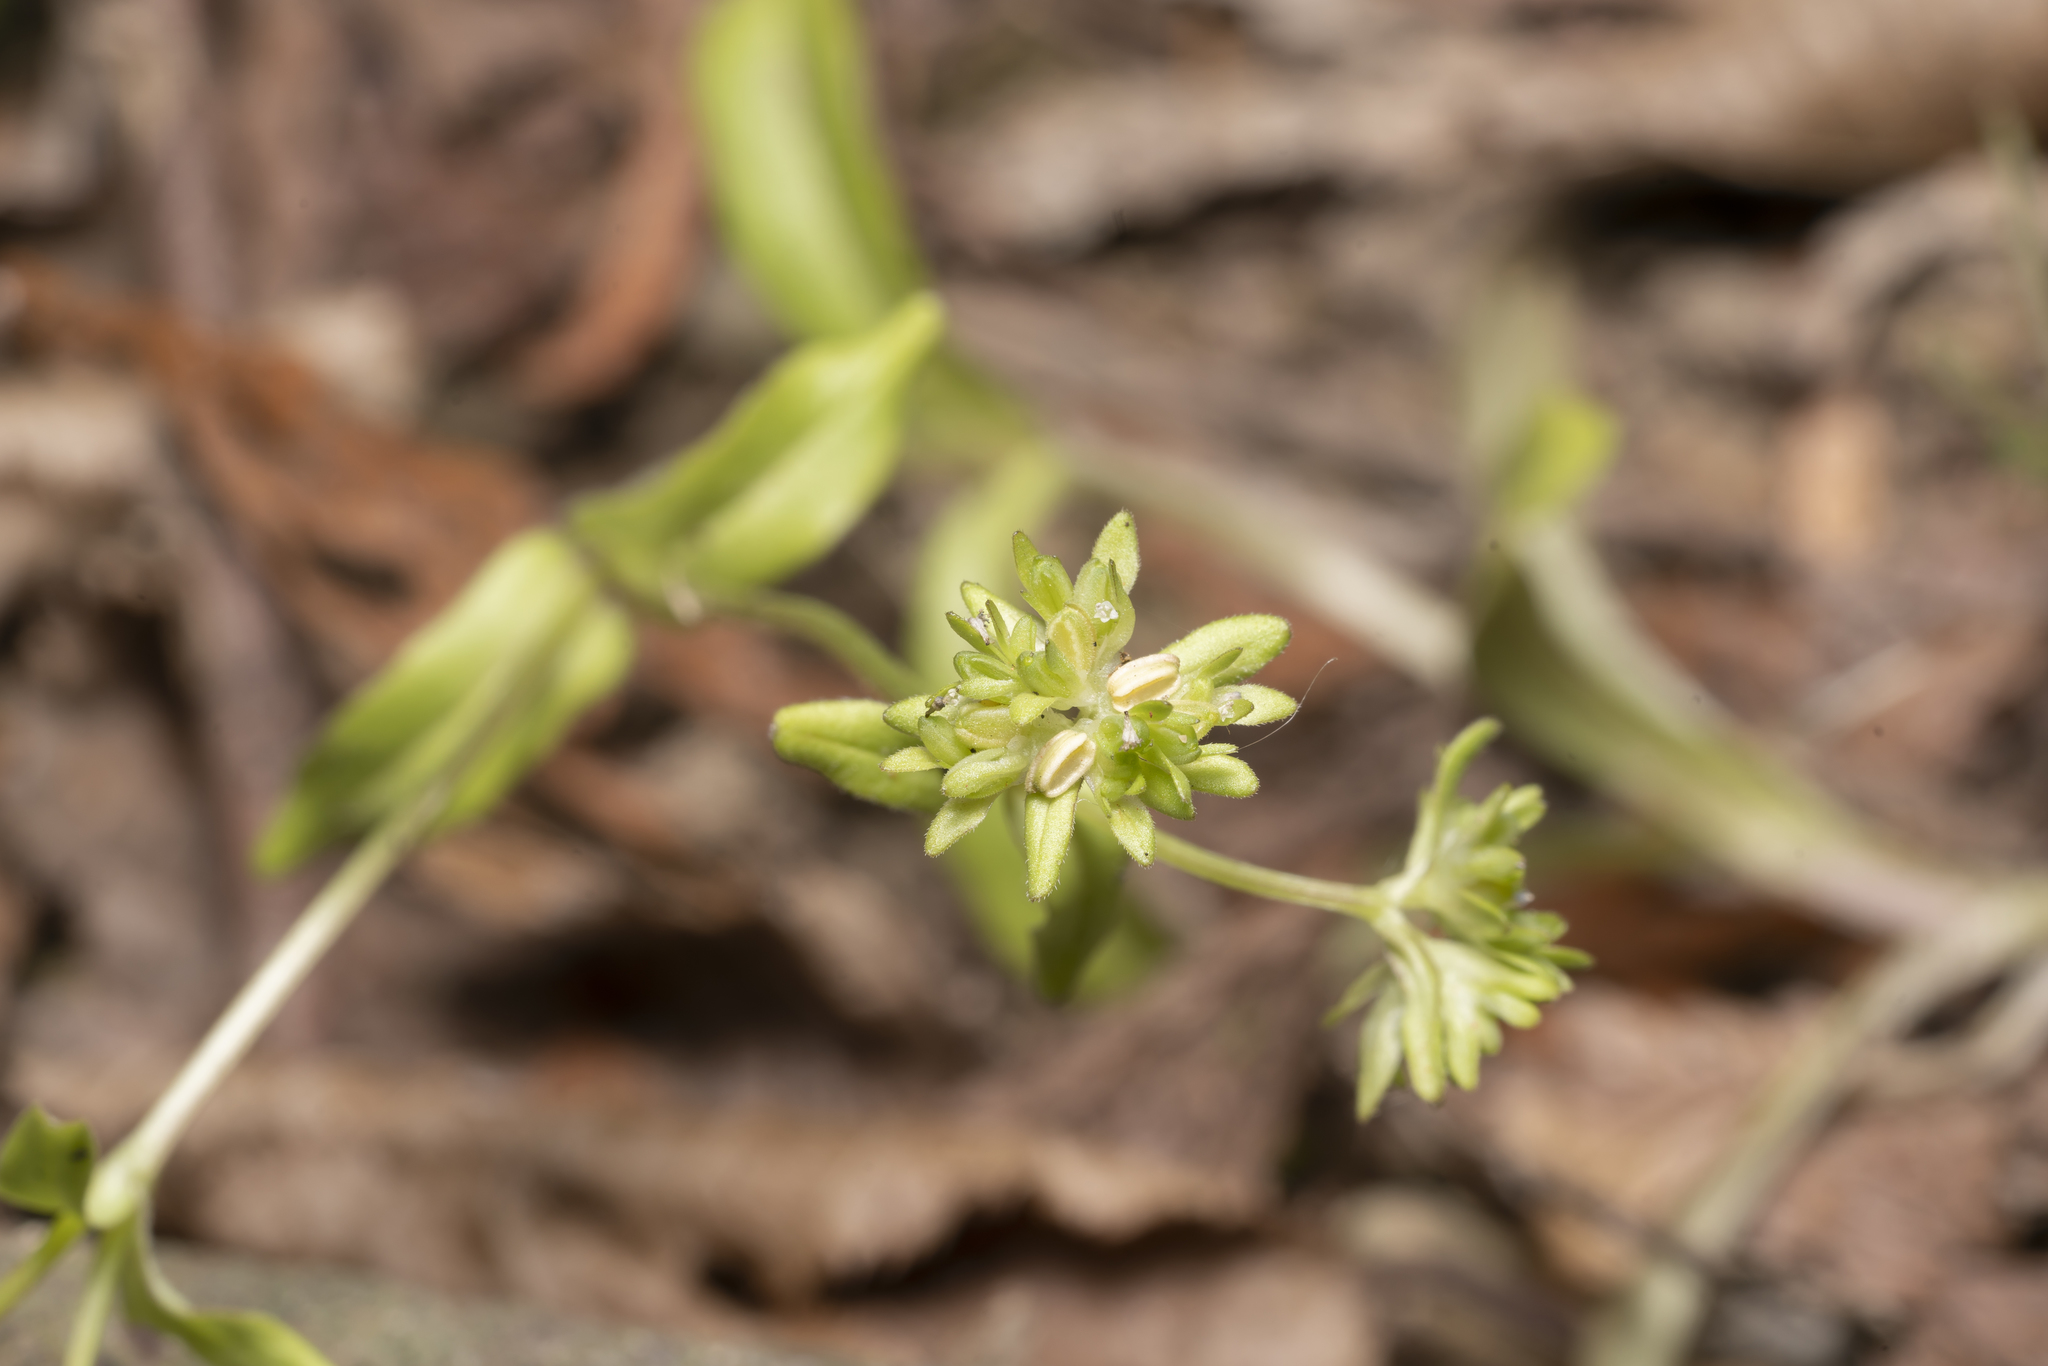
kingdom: Plantae
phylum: Tracheophyta
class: Magnoliopsida
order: Dipsacales
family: Caprifoliaceae
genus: Valerianella
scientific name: Valerianella carinata
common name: Keeled-fruited cornsalad
